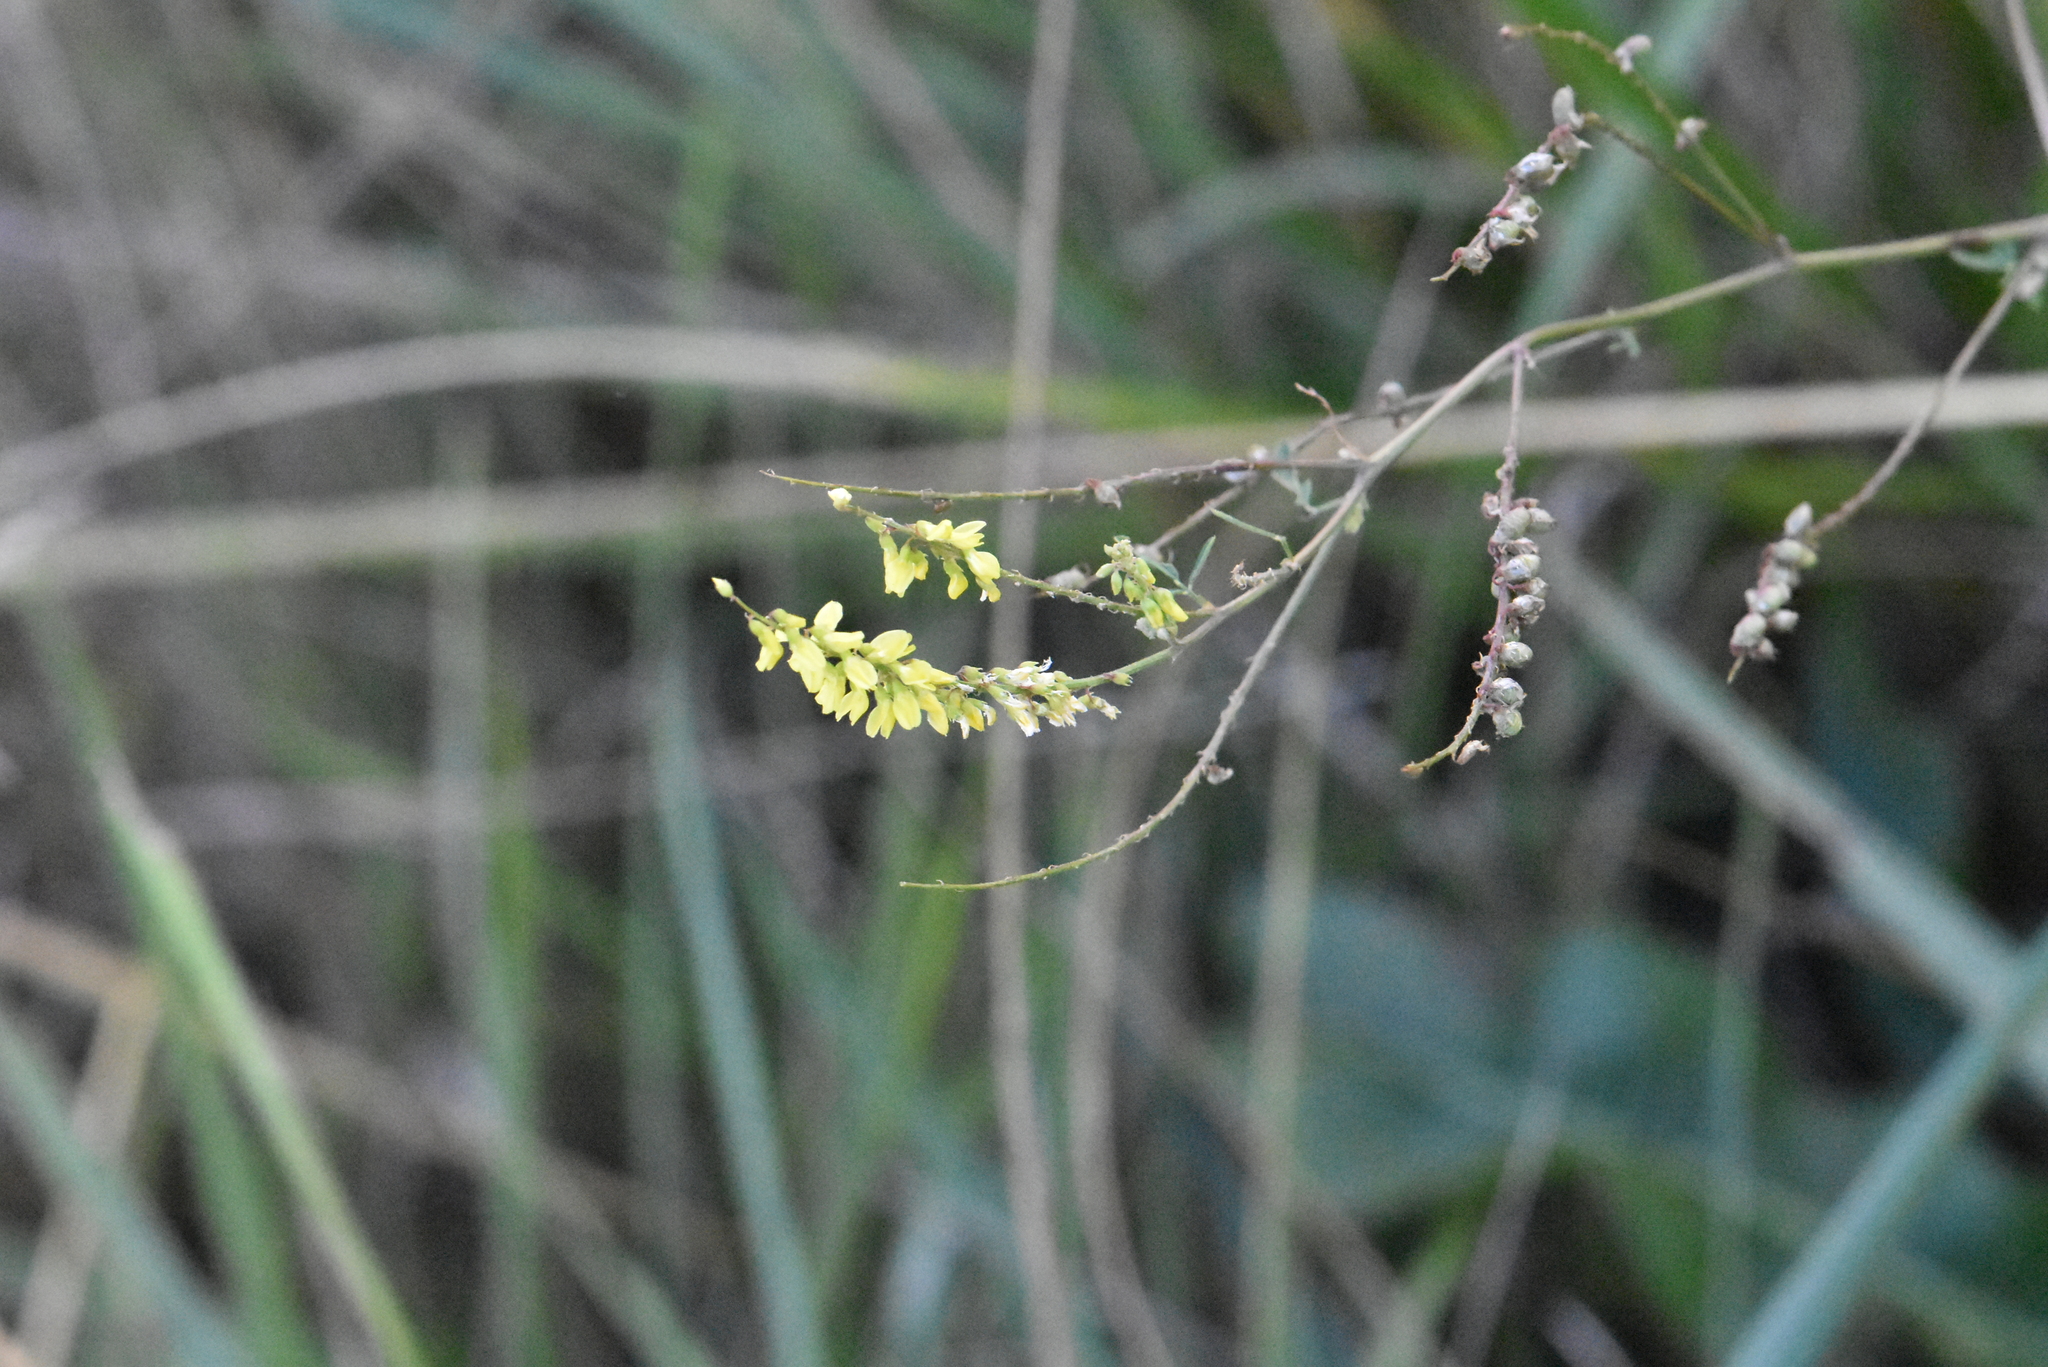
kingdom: Plantae
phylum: Tracheophyta
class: Magnoliopsida
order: Fabales
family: Fabaceae
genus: Melilotus
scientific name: Melilotus officinalis
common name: Sweetclover
